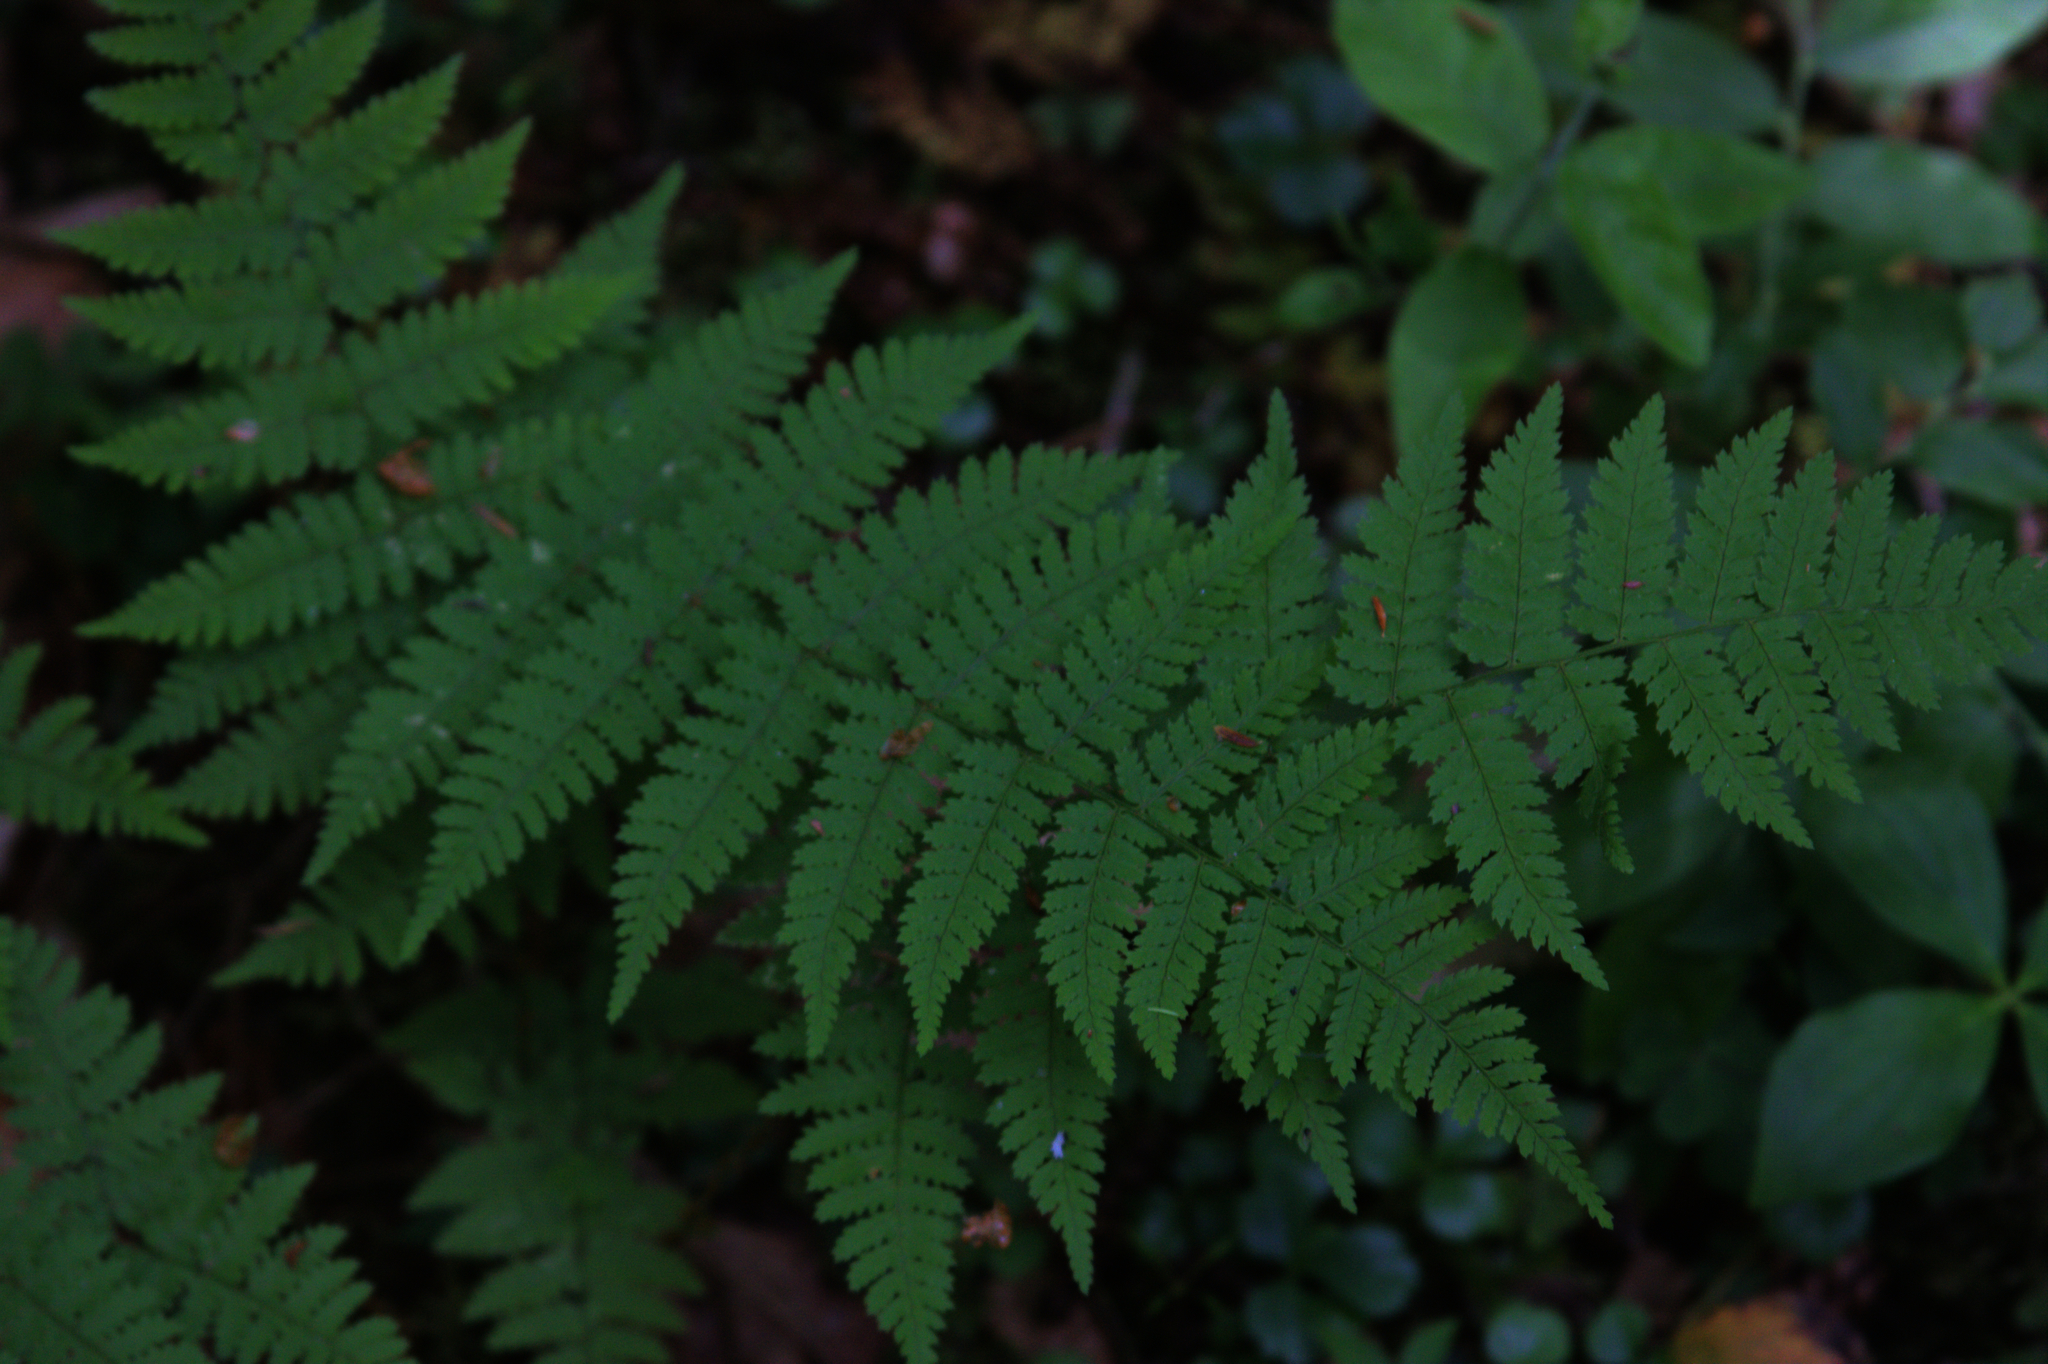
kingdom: Plantae
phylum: Tracheophyta
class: Polypodiopsida
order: Polypodiales
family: Dryopteridaceae
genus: Dryopteris
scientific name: Dryopteris intermedia
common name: Evergreen wood fern
